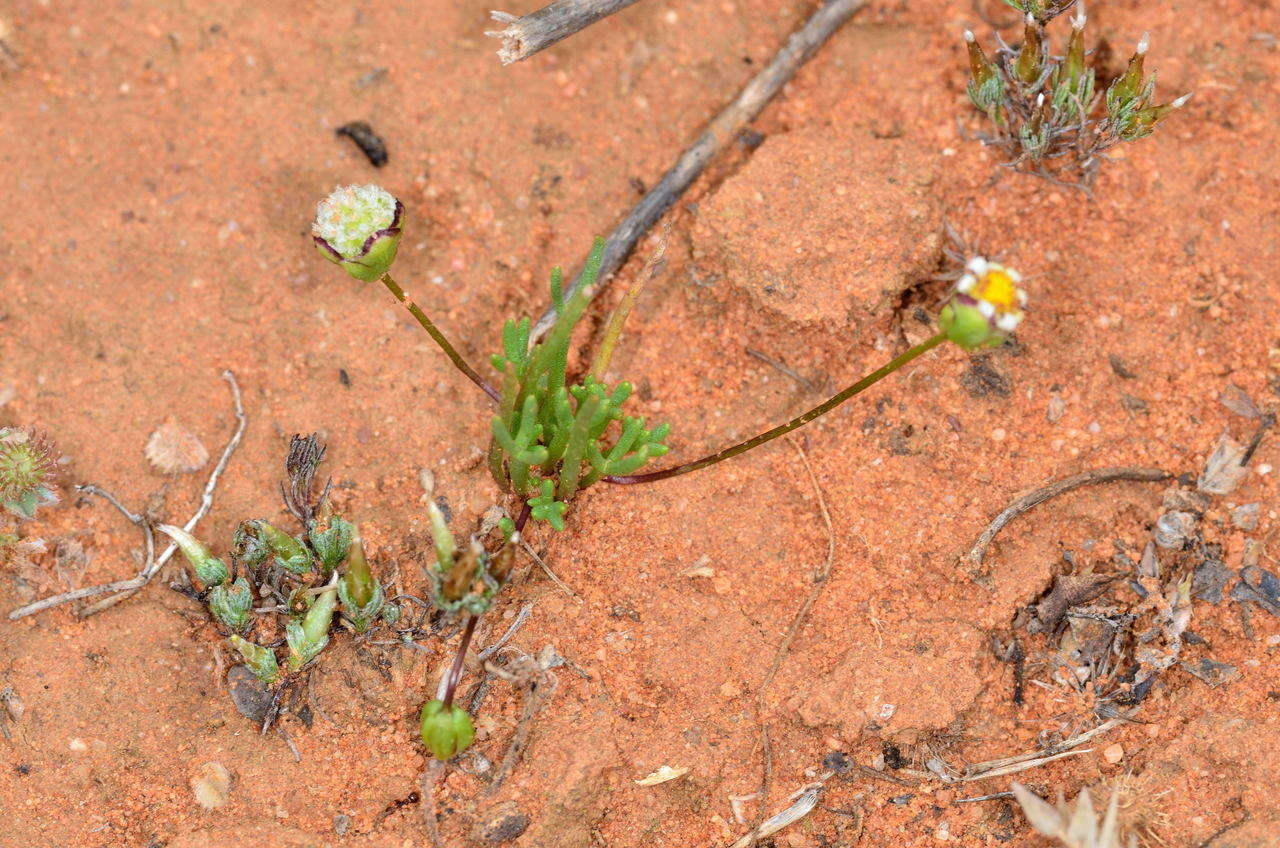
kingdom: Plantae
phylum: Tracheophyta
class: Magnoliopsida
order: Asterales
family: Asteraceae
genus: Brachyscome
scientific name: Brachyscome lineariloba
